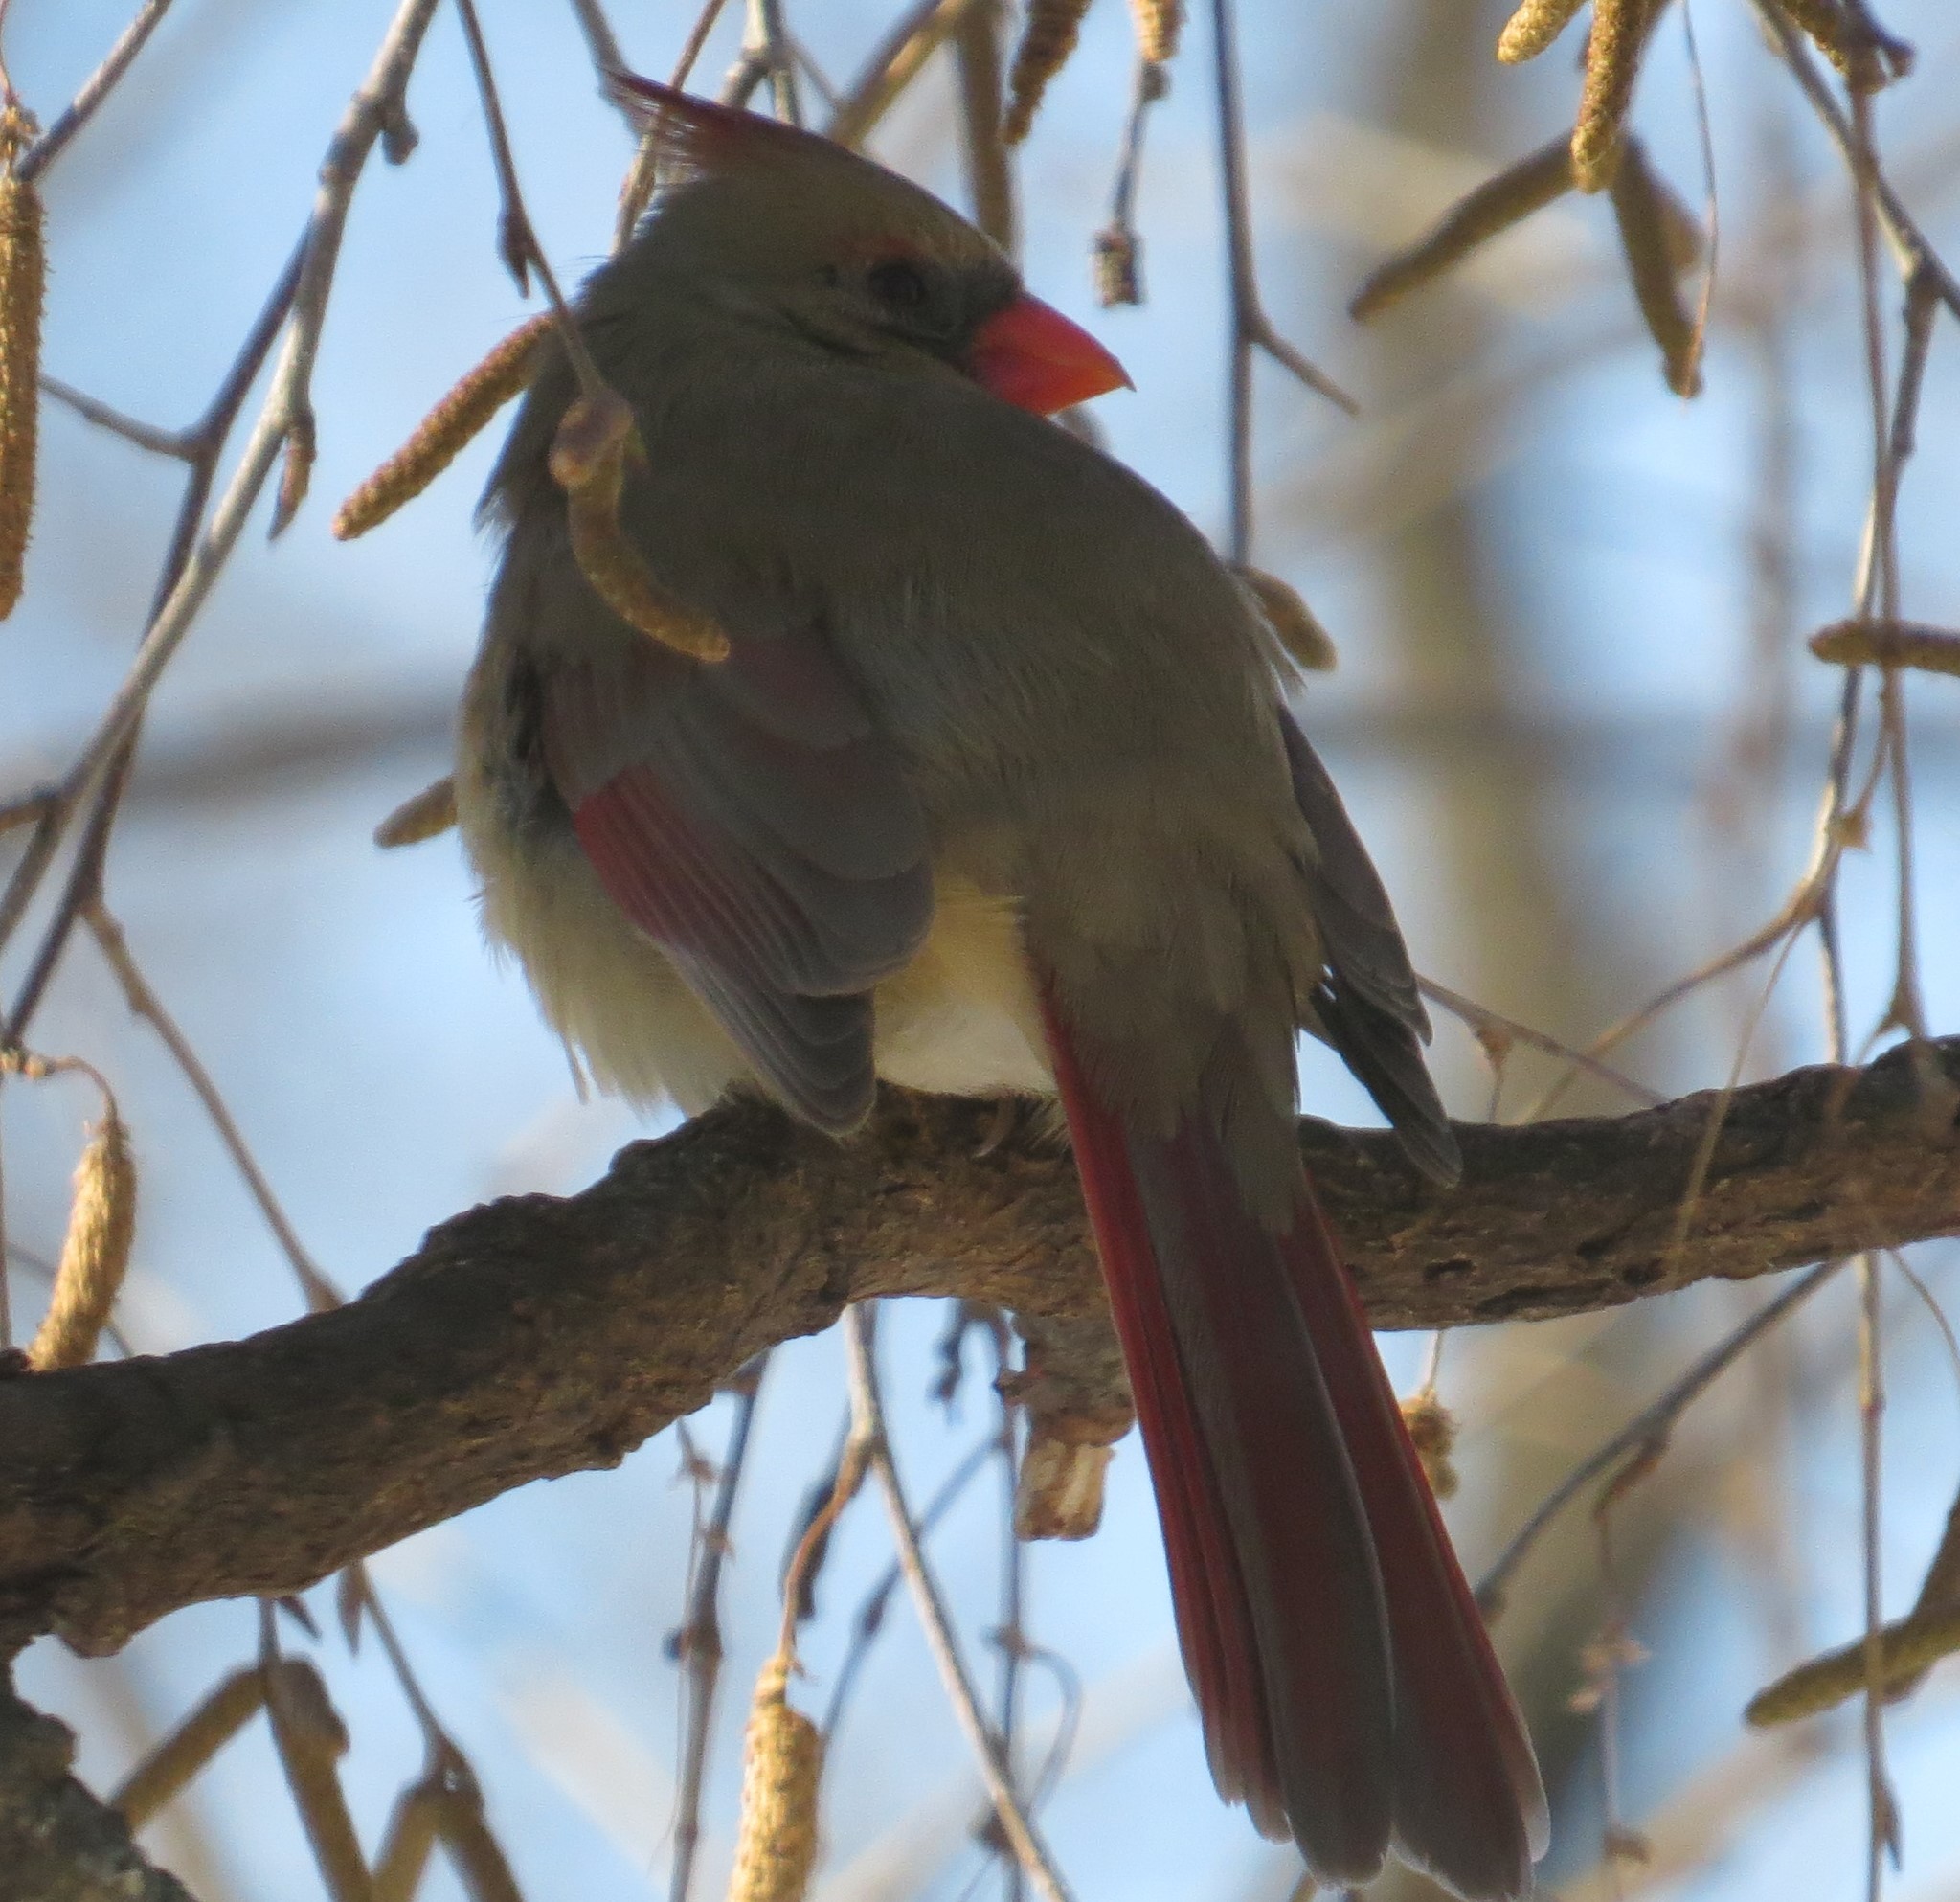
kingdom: Animalia
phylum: Chordata
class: Aves
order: Passeriformes
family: Cardinalidae
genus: Cardinalis
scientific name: Cardinalis cardinalis
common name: Northern cardinal
